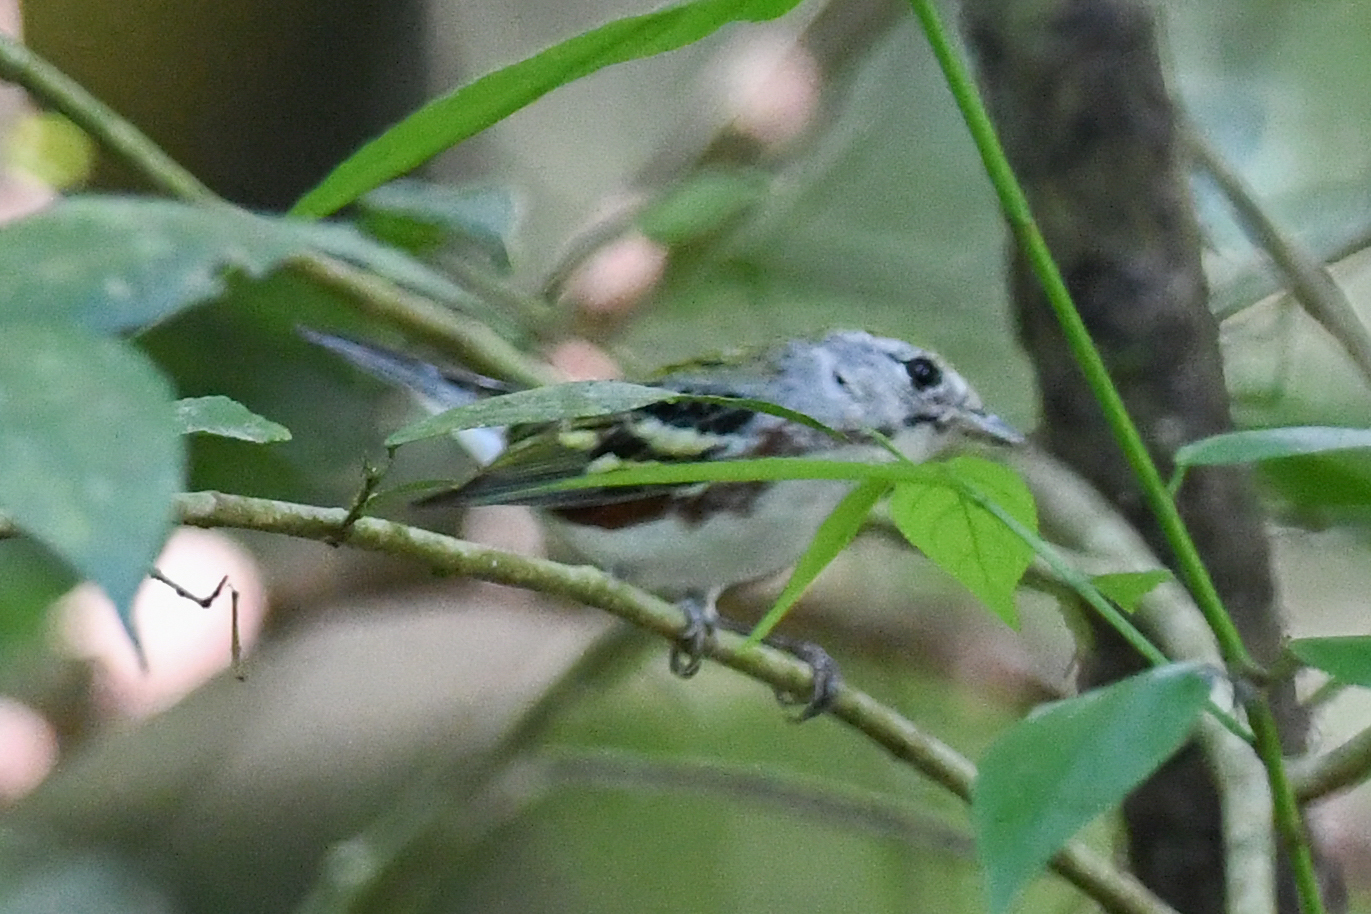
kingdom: Animalia
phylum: Chordata
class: Aves
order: Passeriformes
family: Parulidae
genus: Setophaga
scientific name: Setophaga pensylvanica
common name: Chestnut-sided warbler
